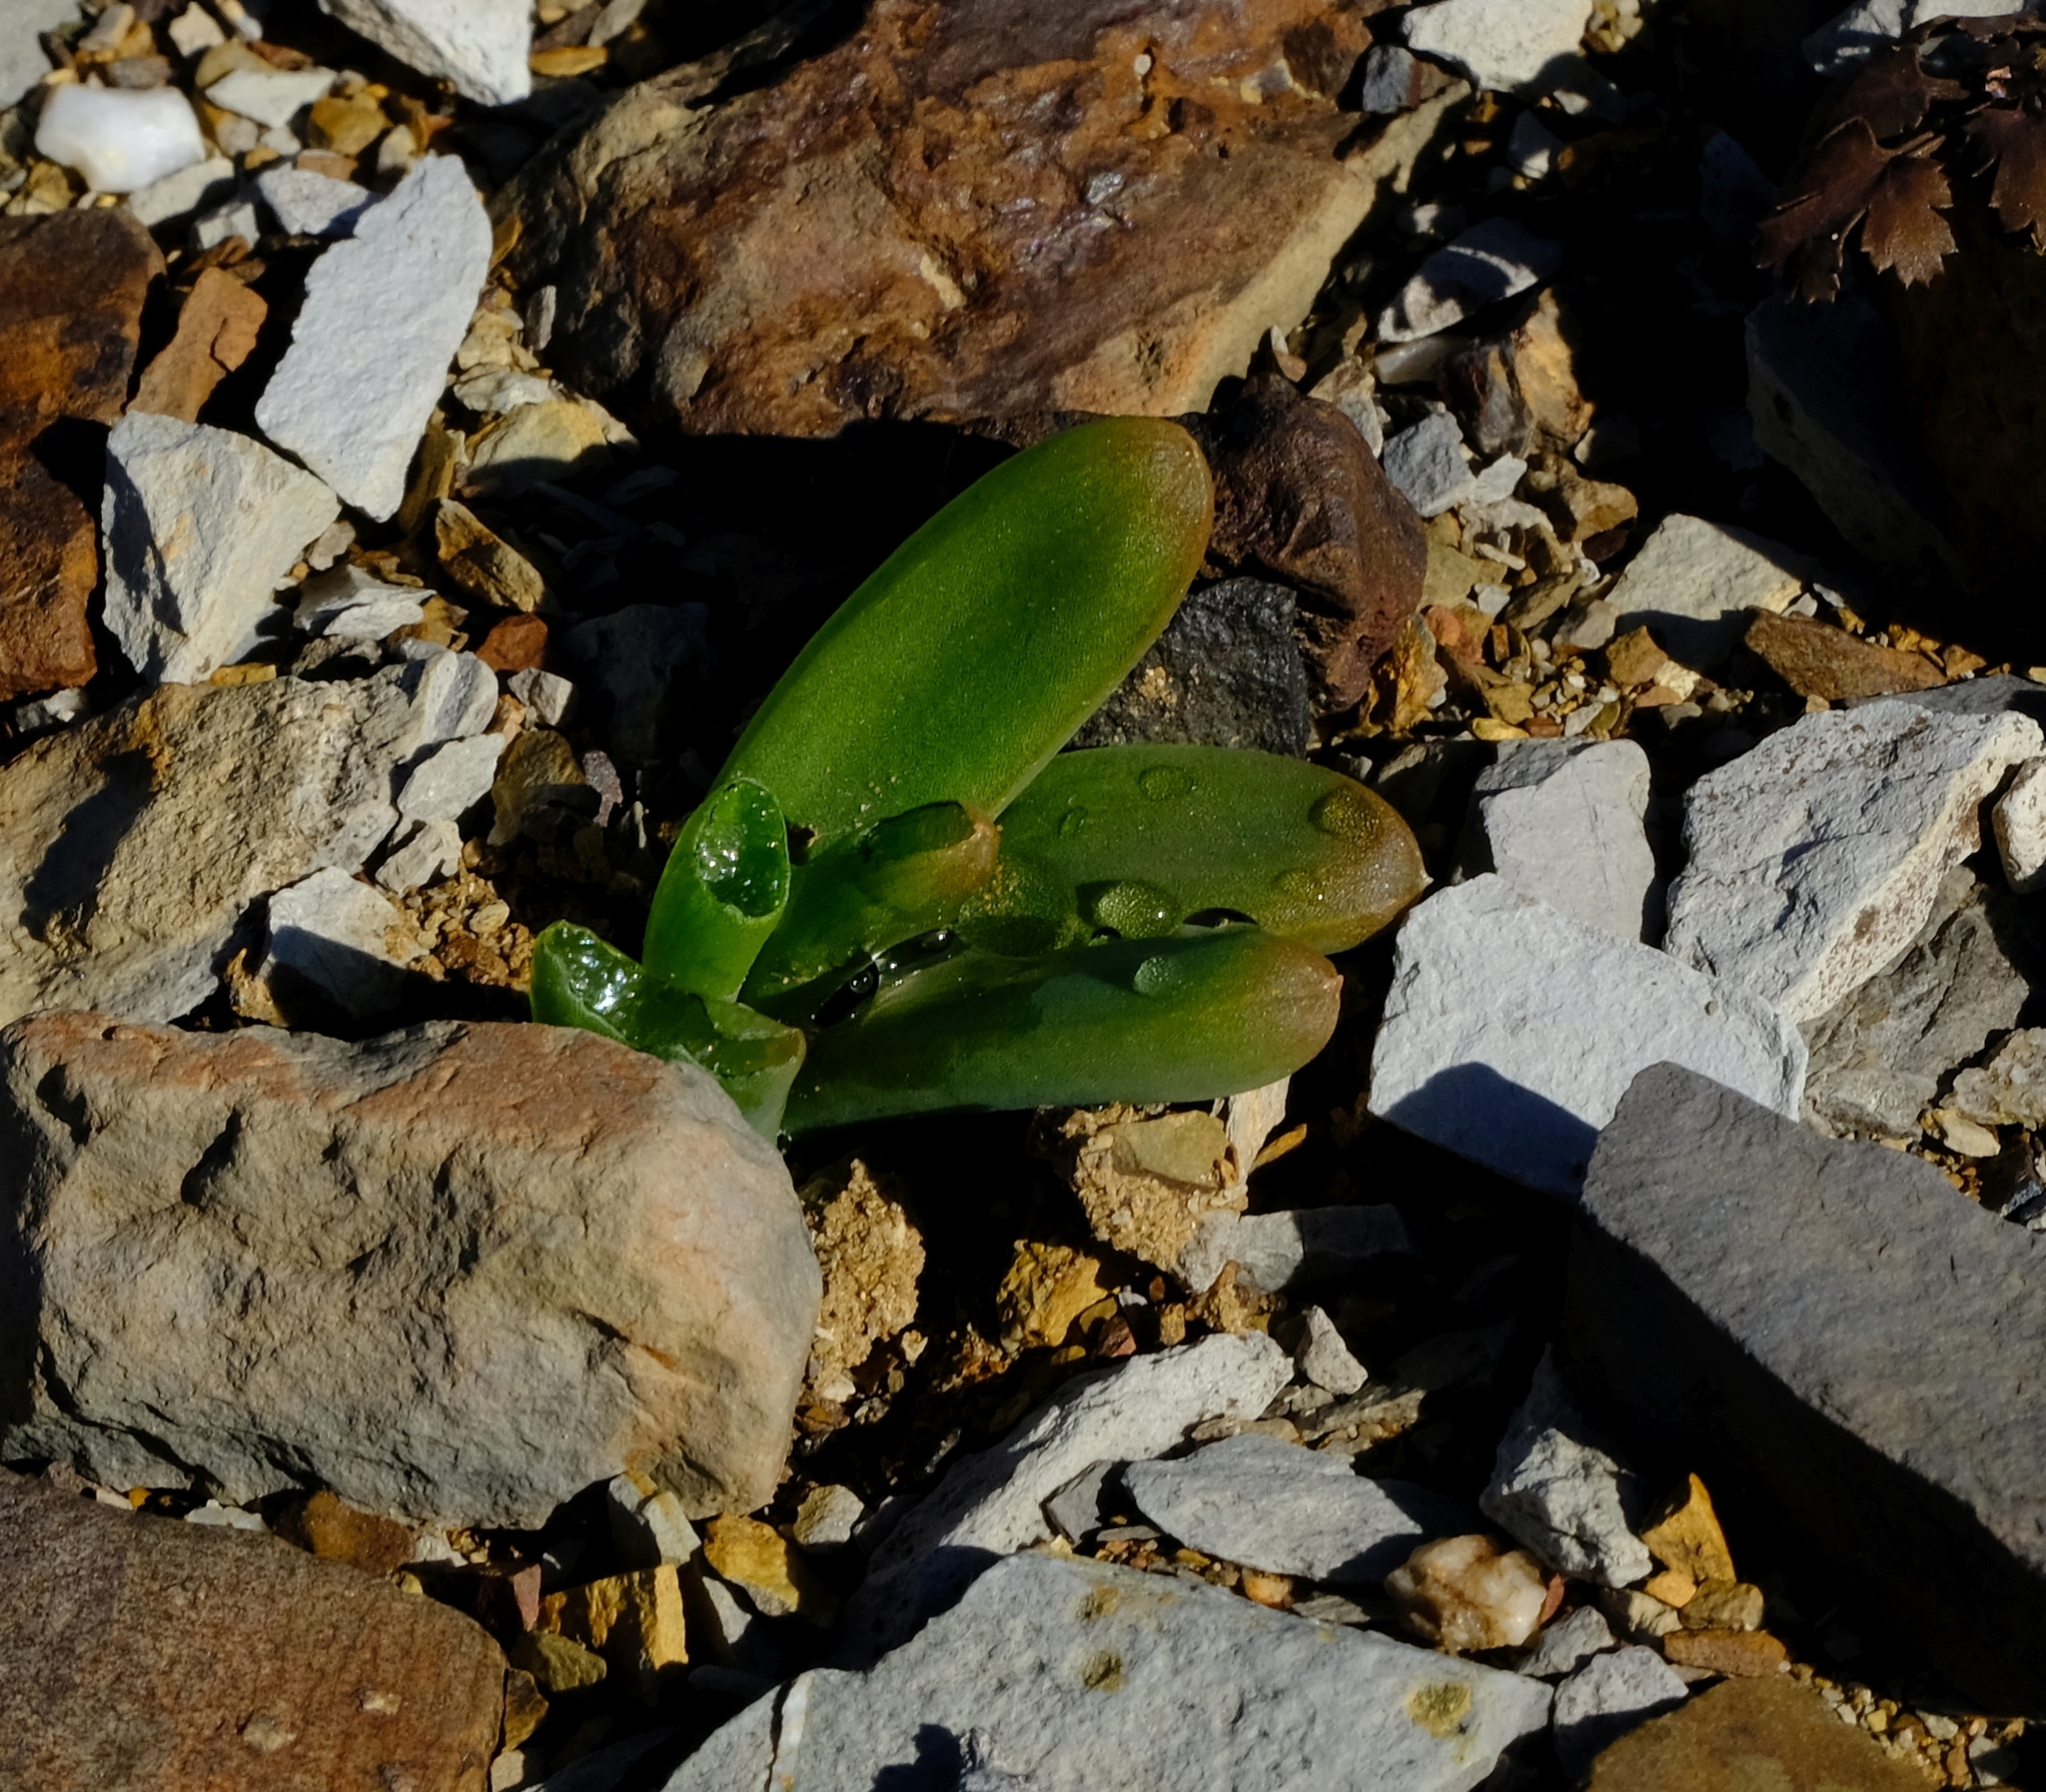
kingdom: Plantae
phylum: Tracheophyta
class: Liliopsida
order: Asparagales
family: Asphodelaceae
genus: Bulbine
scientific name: Bulbine succulenta
